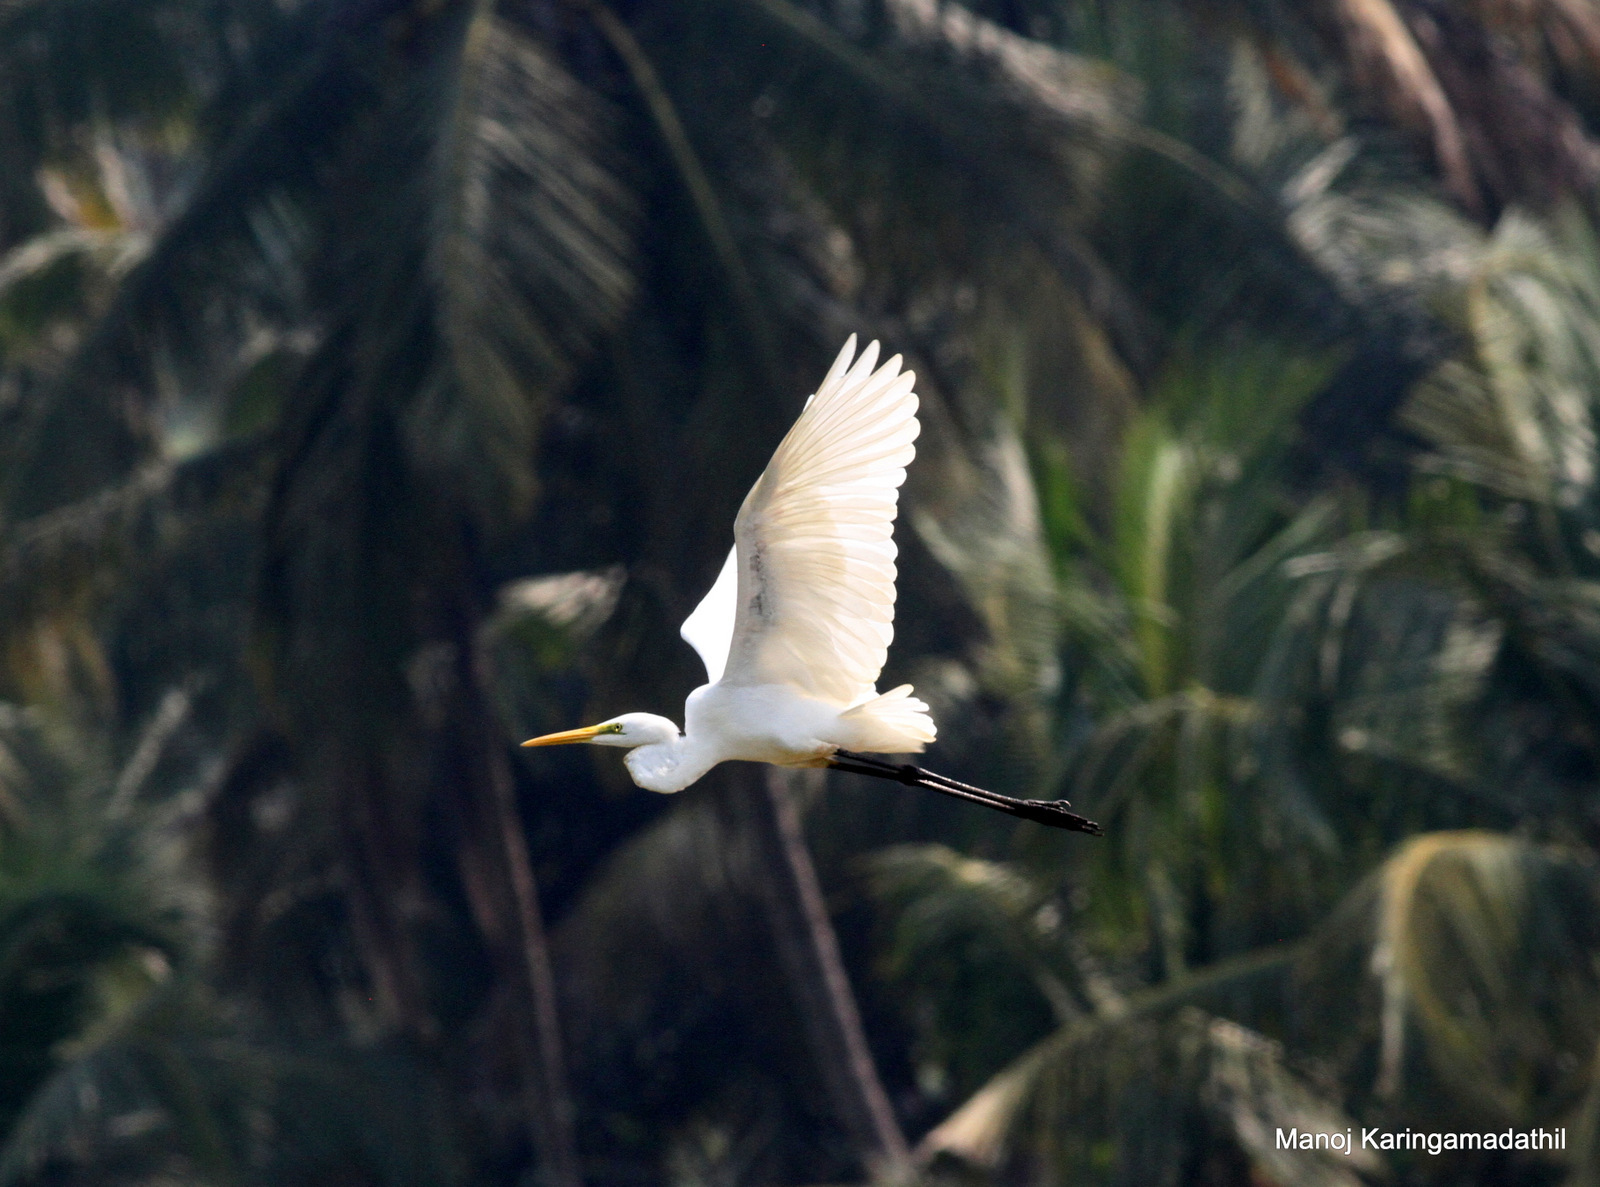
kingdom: Animalia
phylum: Chordata
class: Aves
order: Pelecaniformes
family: Ardeidae
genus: Ardea
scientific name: Ardea alba
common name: Great egret
